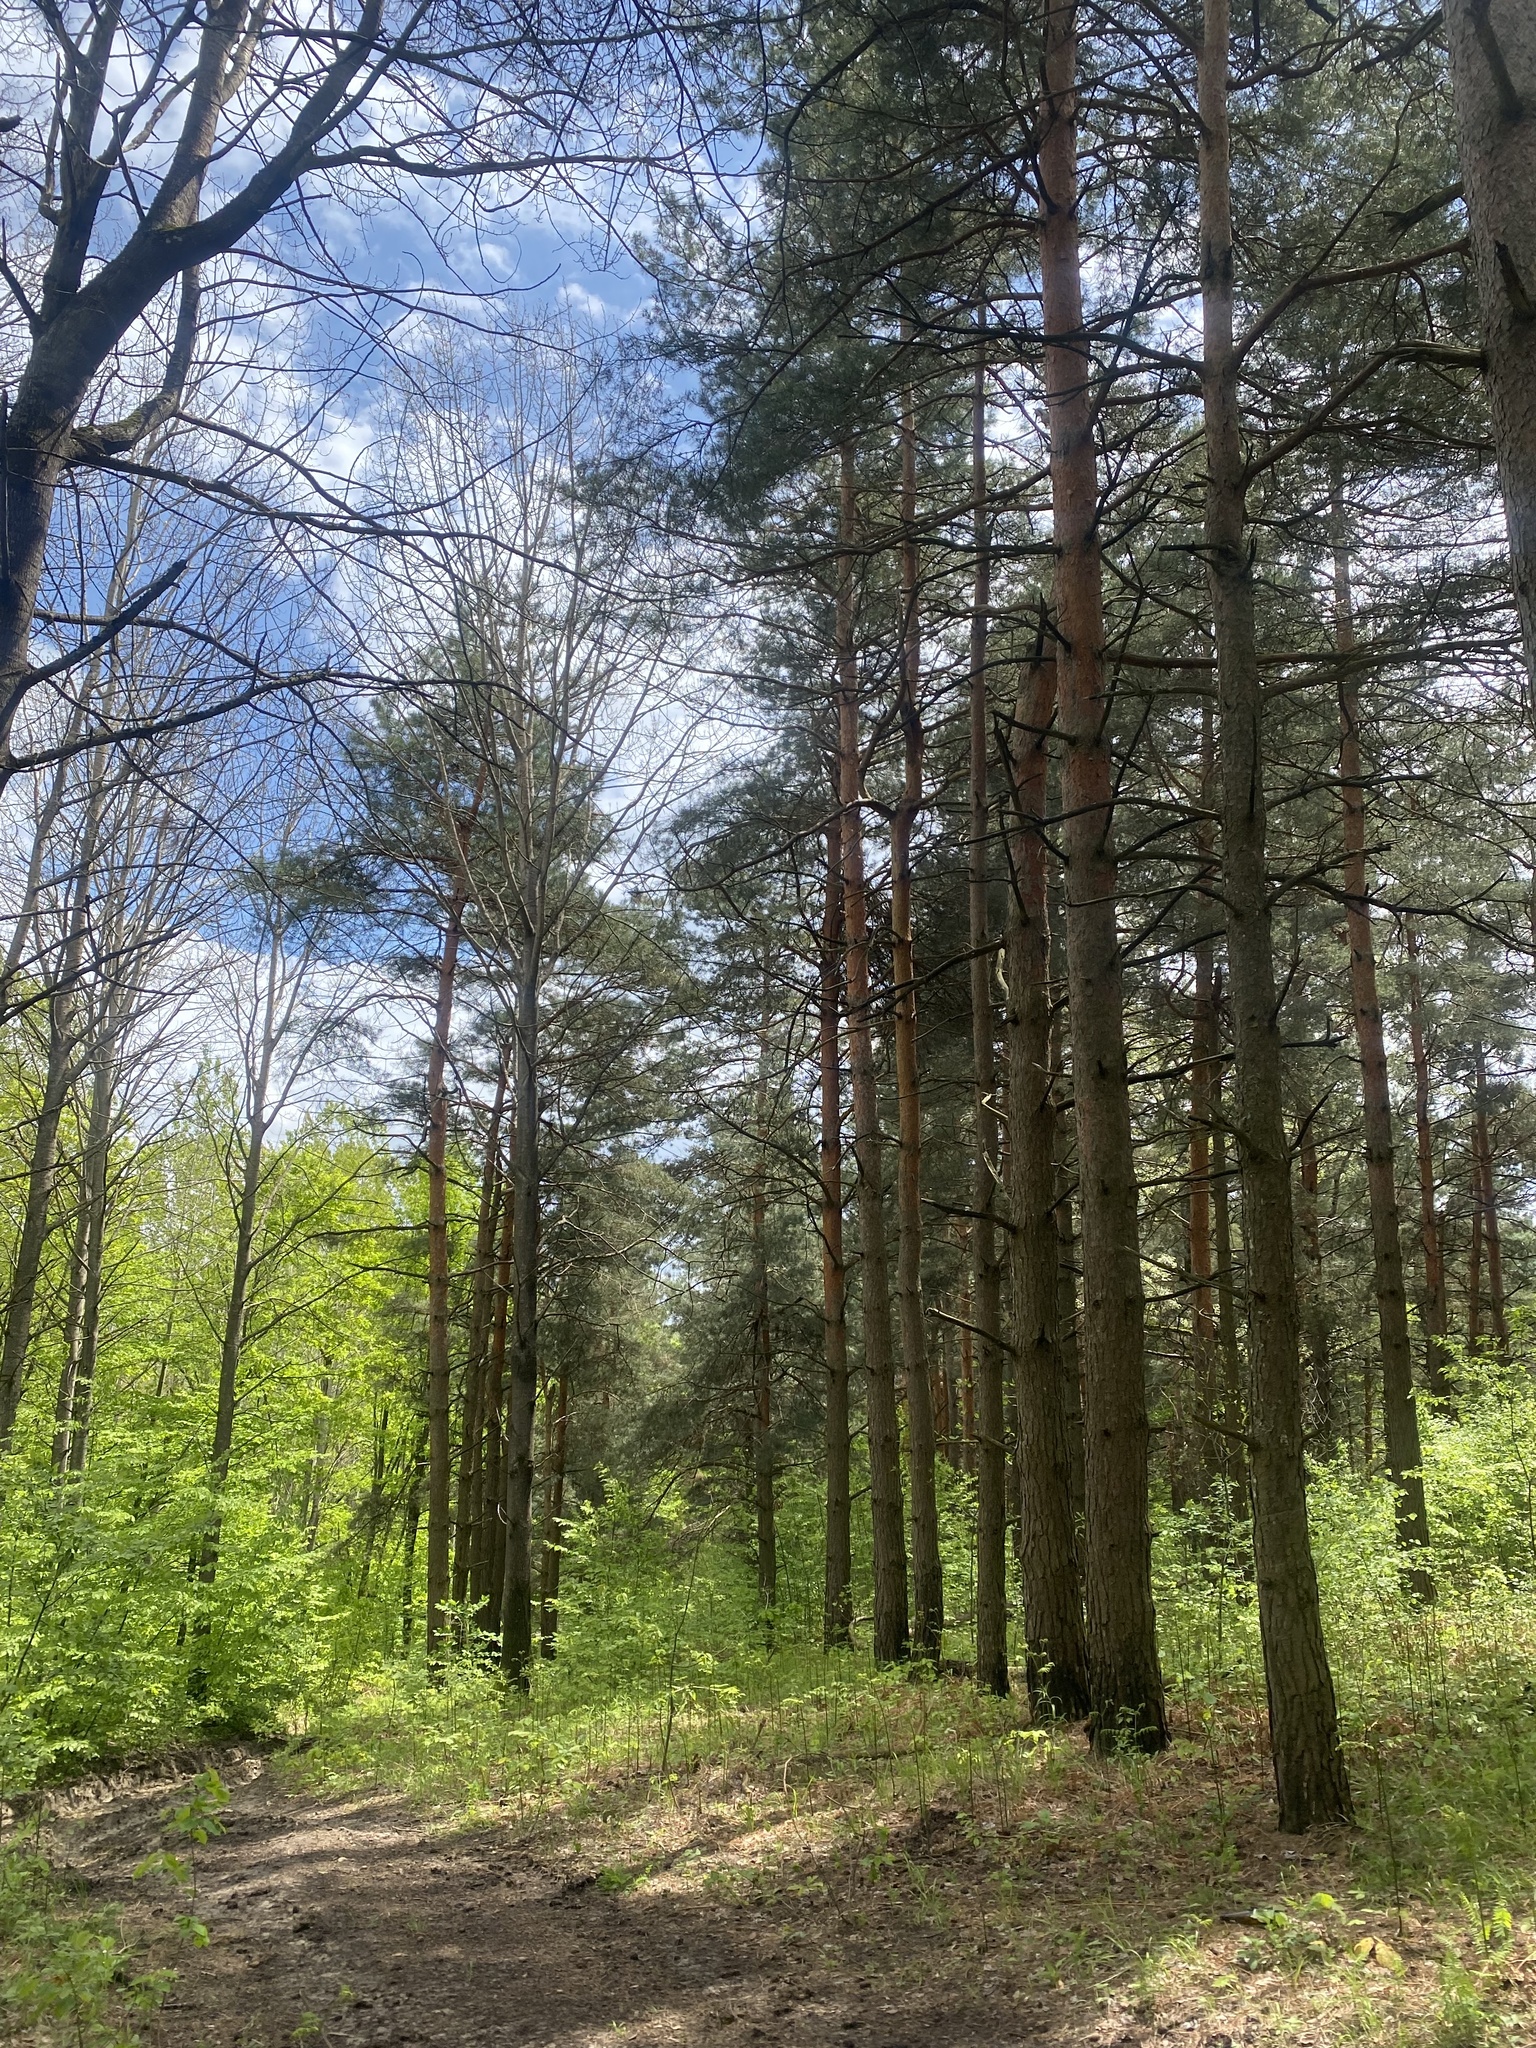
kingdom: Plantae
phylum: Tracheophyta
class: Pinopsida
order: Pinales
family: Pinaceae
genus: Pinus
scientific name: Pinus sylvestris
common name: Scots pine
